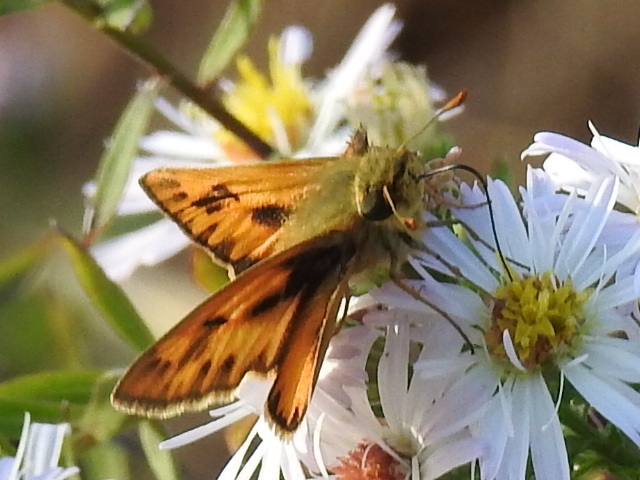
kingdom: Animalia
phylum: Arthropoda
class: Insecta
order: Lepidoptera
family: Hesperiidae
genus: Hylephila
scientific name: Hylephila phyleus
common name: Fiery skipper
